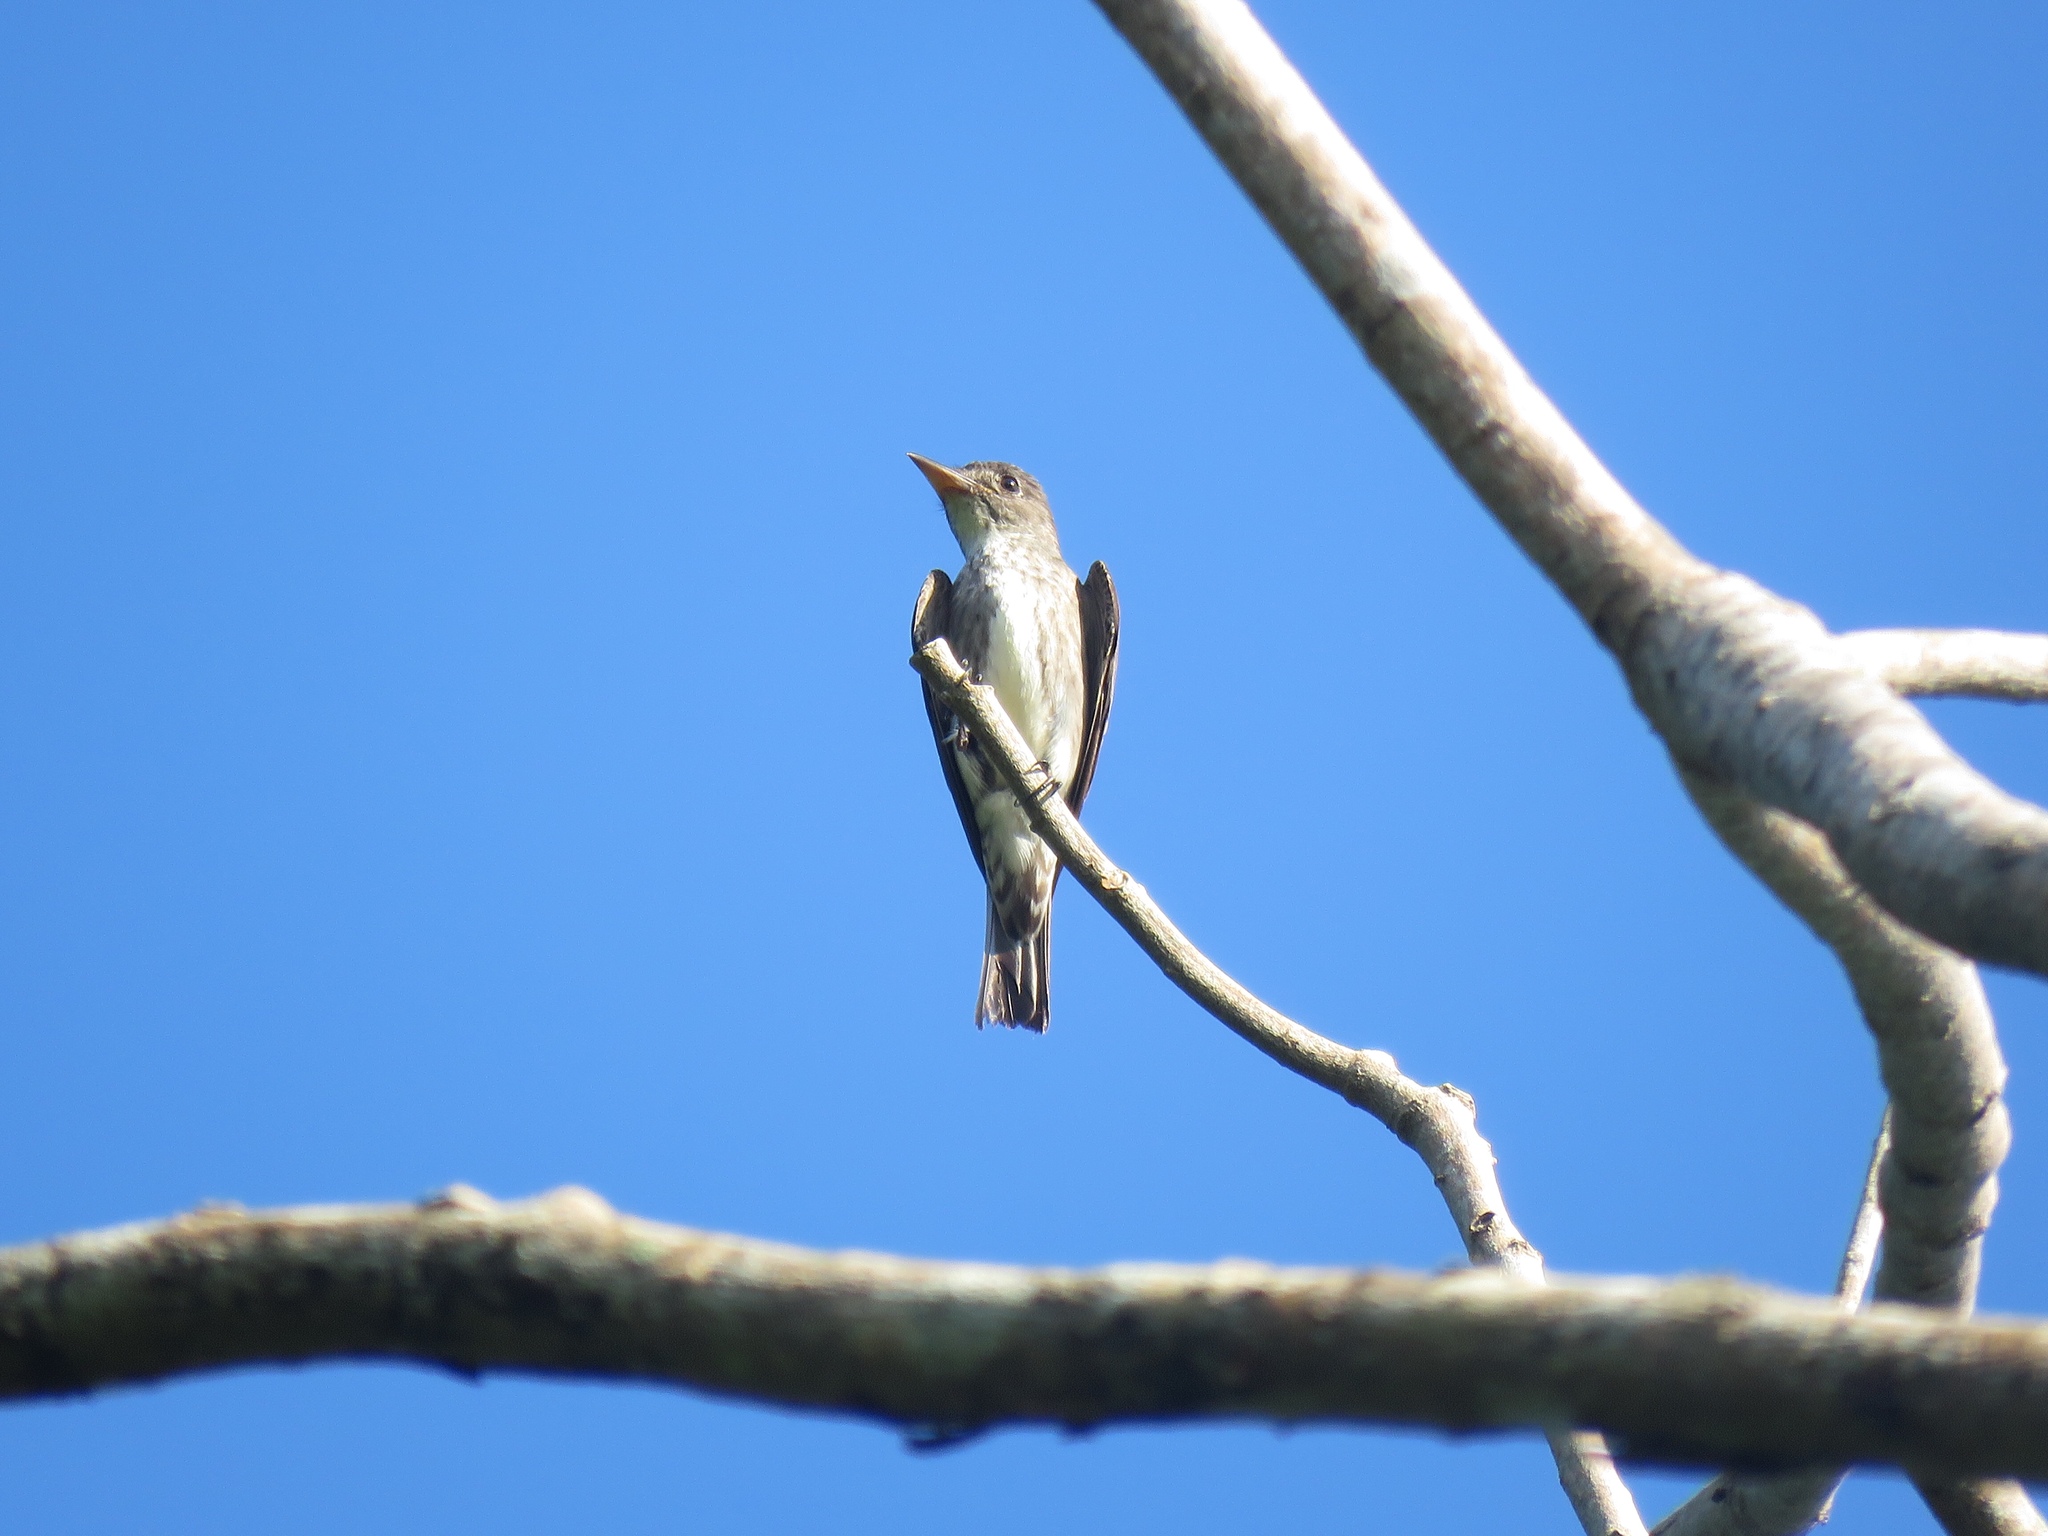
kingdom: Animalia
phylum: Chordata
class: Aves
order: Passeriformes
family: Tyrannidae
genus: Contopus
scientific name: Contopus cooperi
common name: Olive-sided flycatcher
